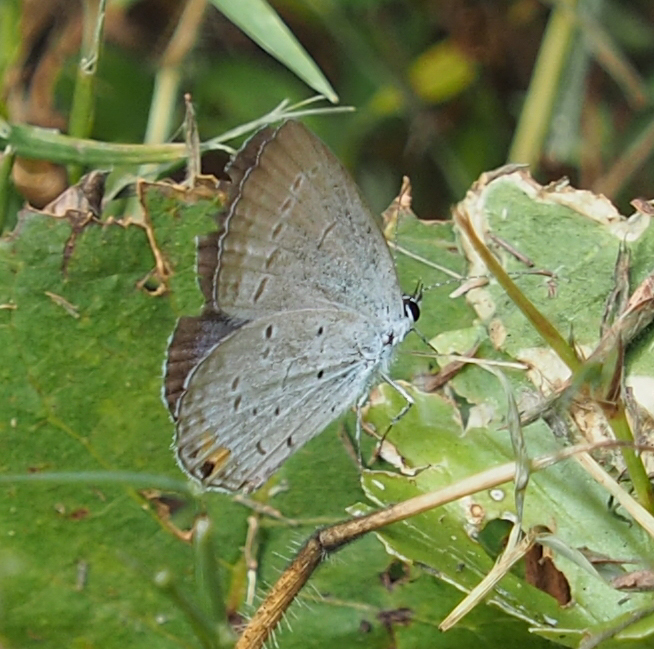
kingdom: Animalia
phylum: Arthropoda
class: Insecta
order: Lepidoptera
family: Lycaenidae
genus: Elkalyce
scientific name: Elkalyce comyntas
